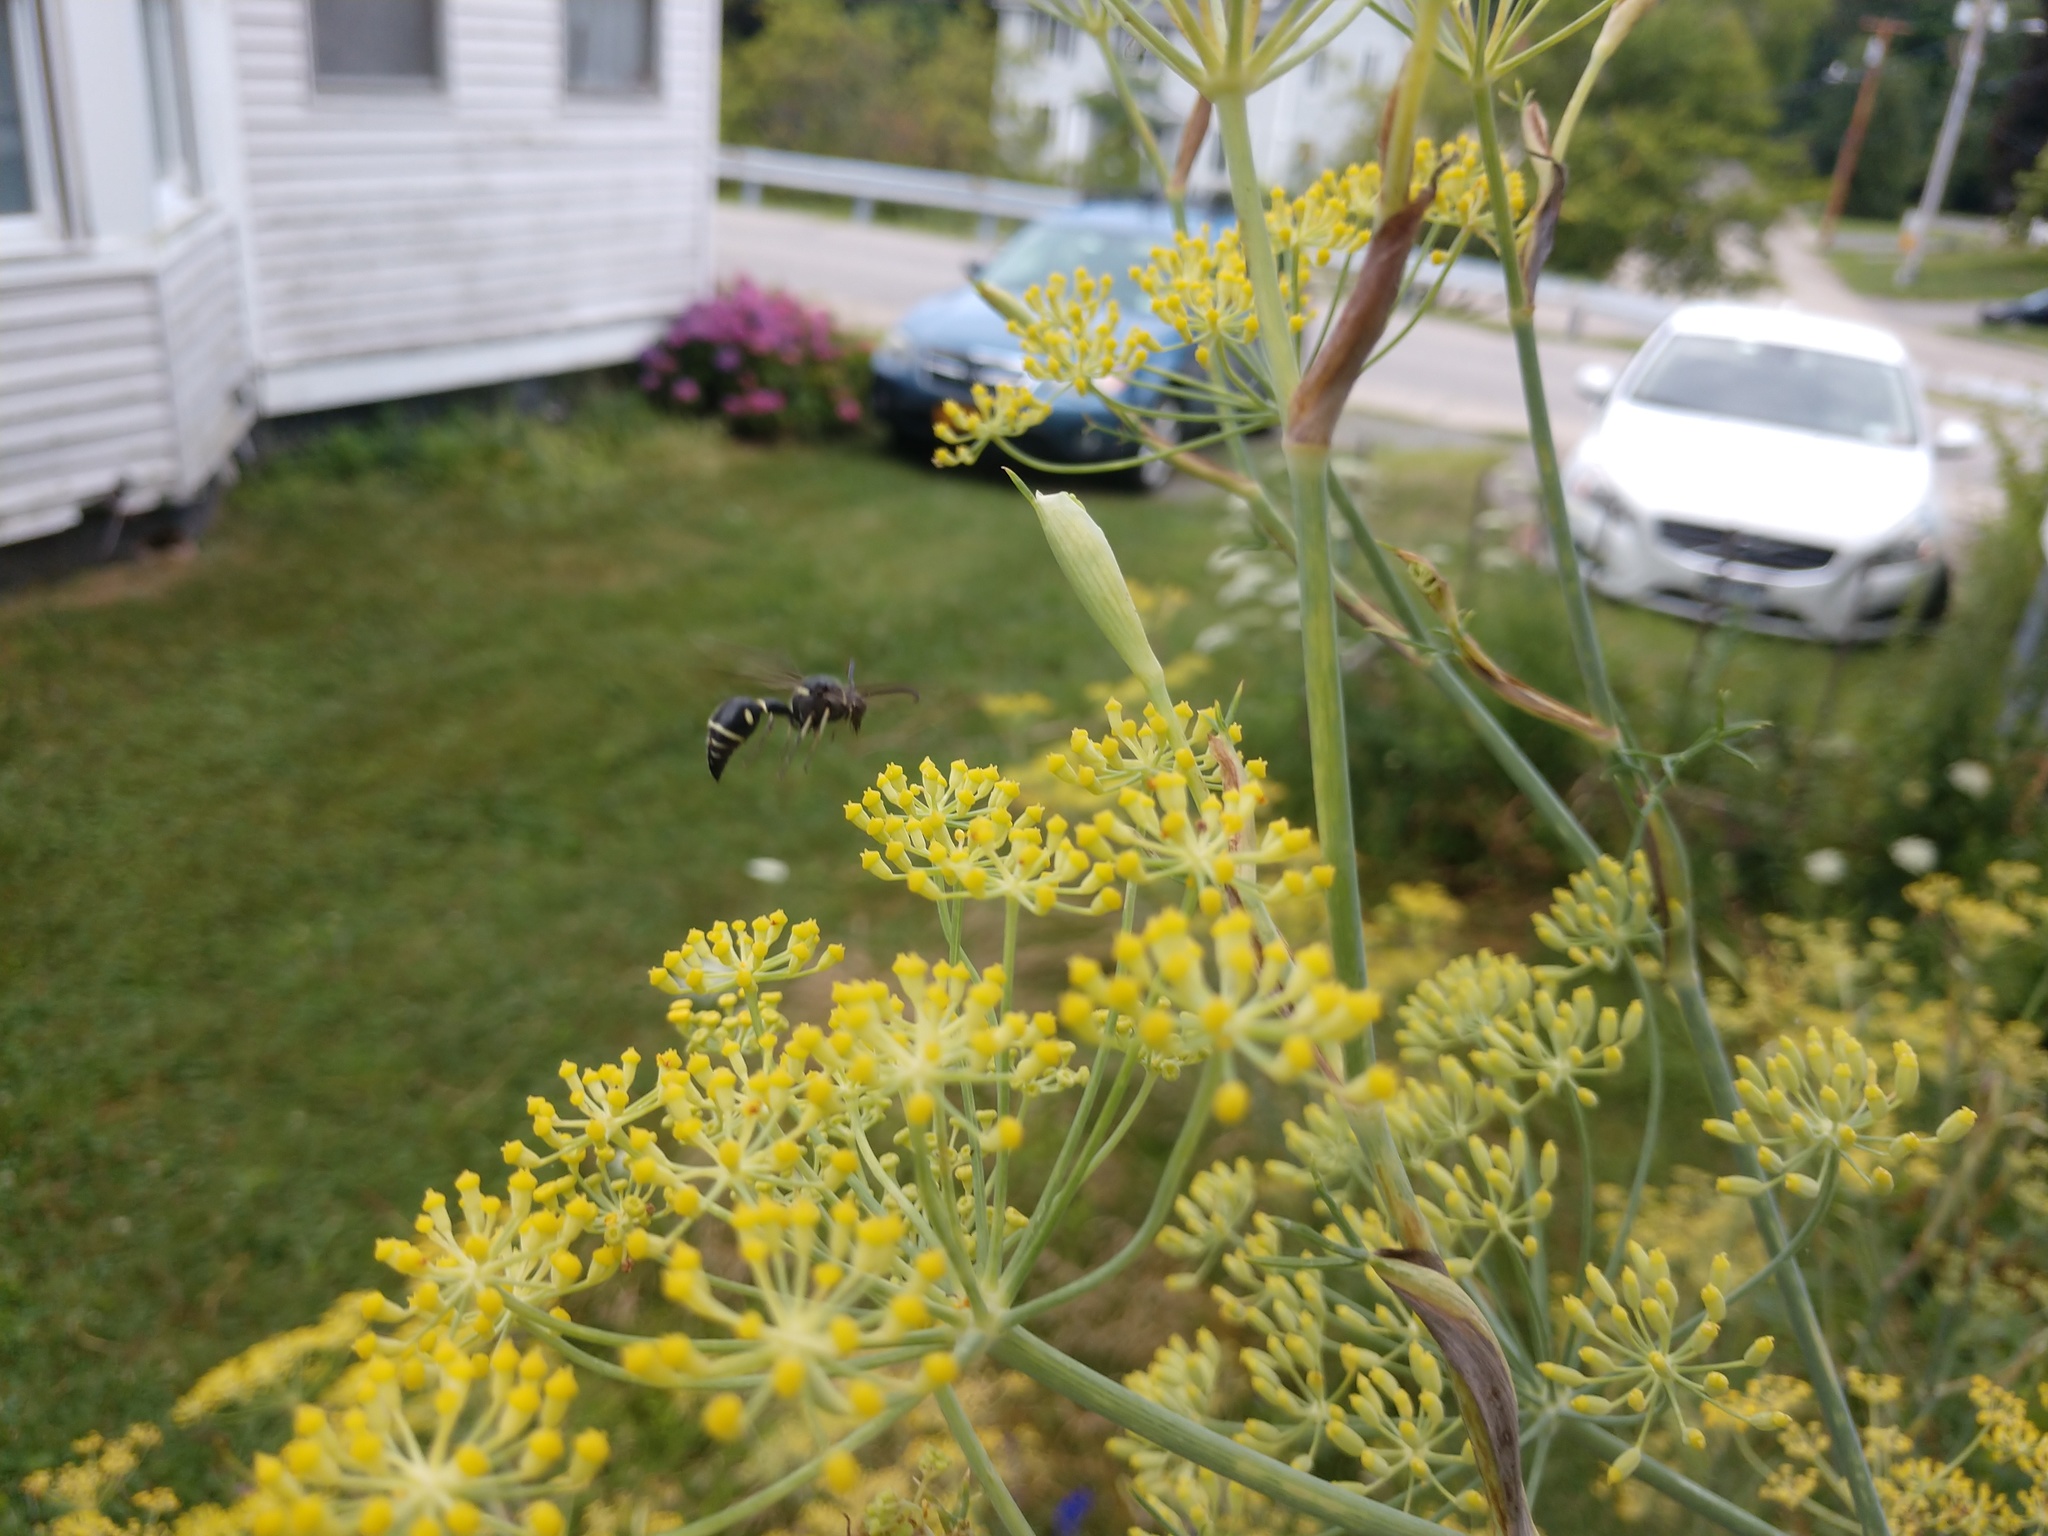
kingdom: Animalia
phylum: Arthropoda
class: Insecta
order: Hymenoptera
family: Vespidae
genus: Eumenes
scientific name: Eumenes fraternus
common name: Fraternal potter wasp
